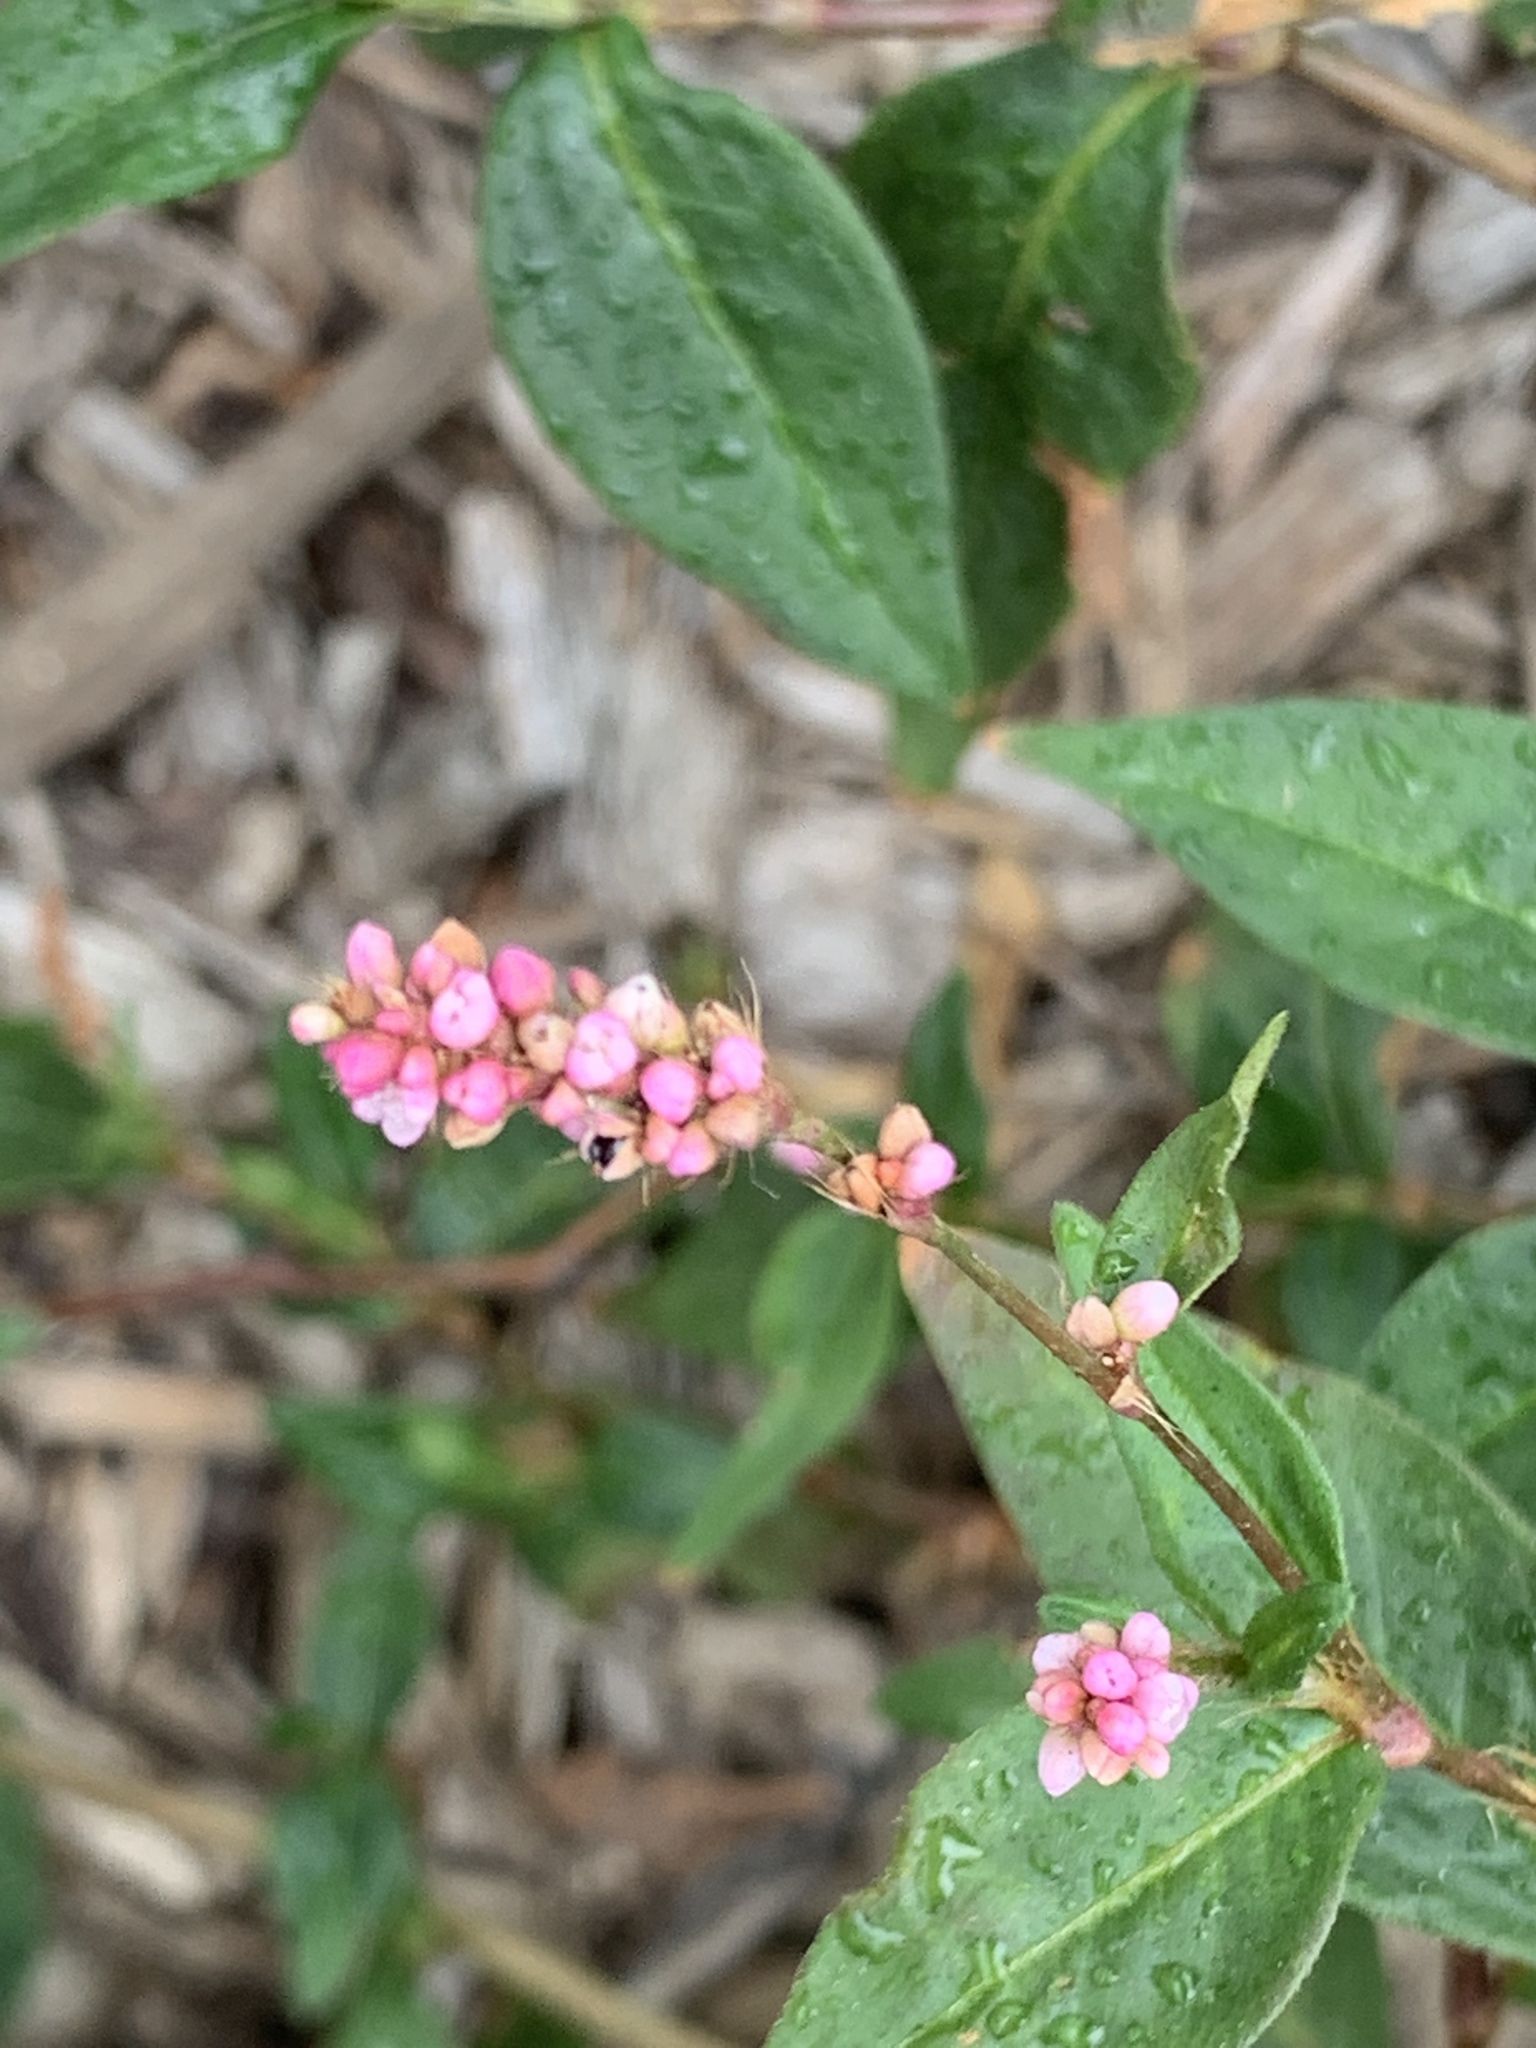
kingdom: Plantae
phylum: Tracheophyta
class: Magnoliopsida
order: Caryophyllales
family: Polygonaceae
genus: Persicaria
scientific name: Persicaria longiseta
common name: Bristly lady's-thumb
